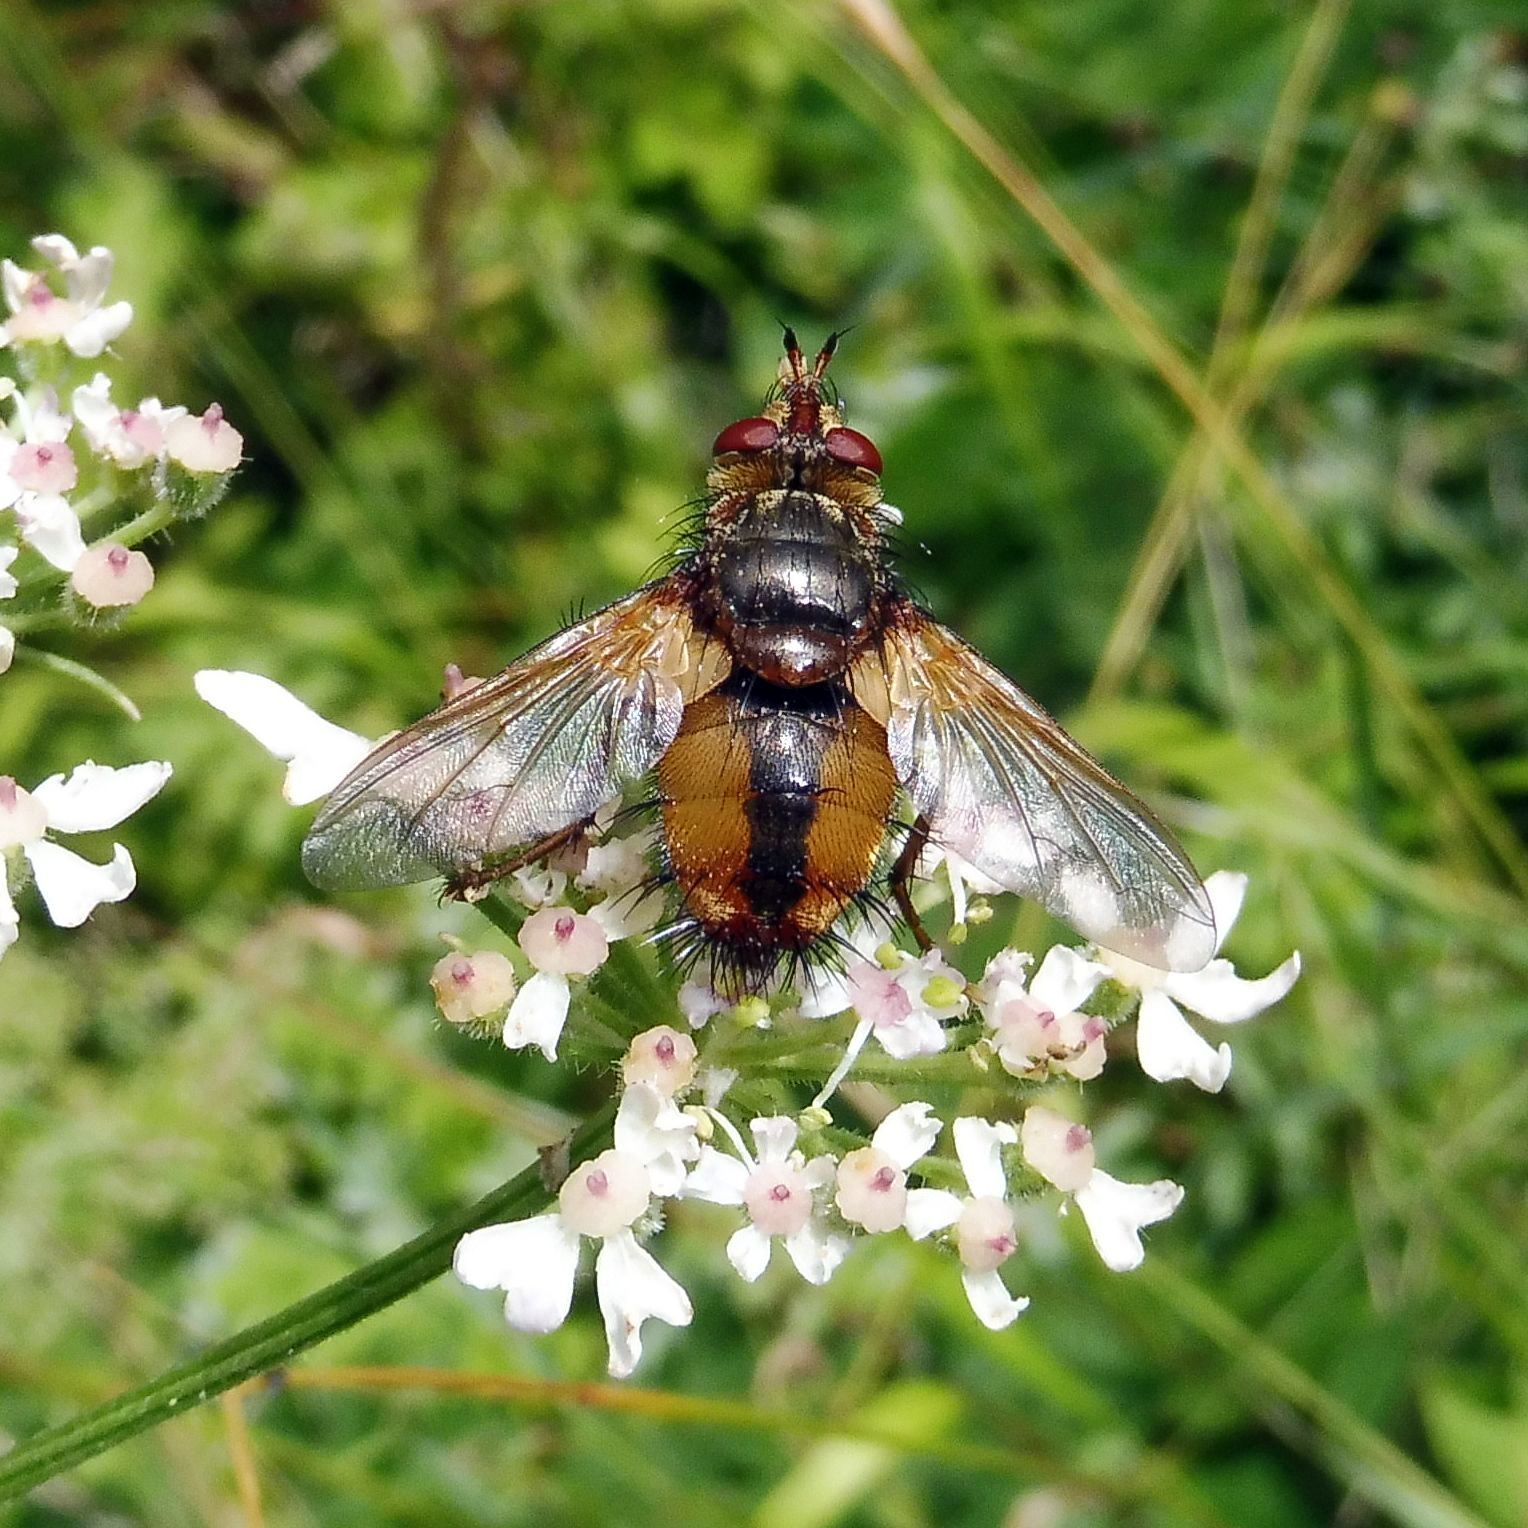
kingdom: Animalia
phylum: Arthropoda
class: Insecta
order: Diptera
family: Tachinidae
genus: Tachina
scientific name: Tachina fera
